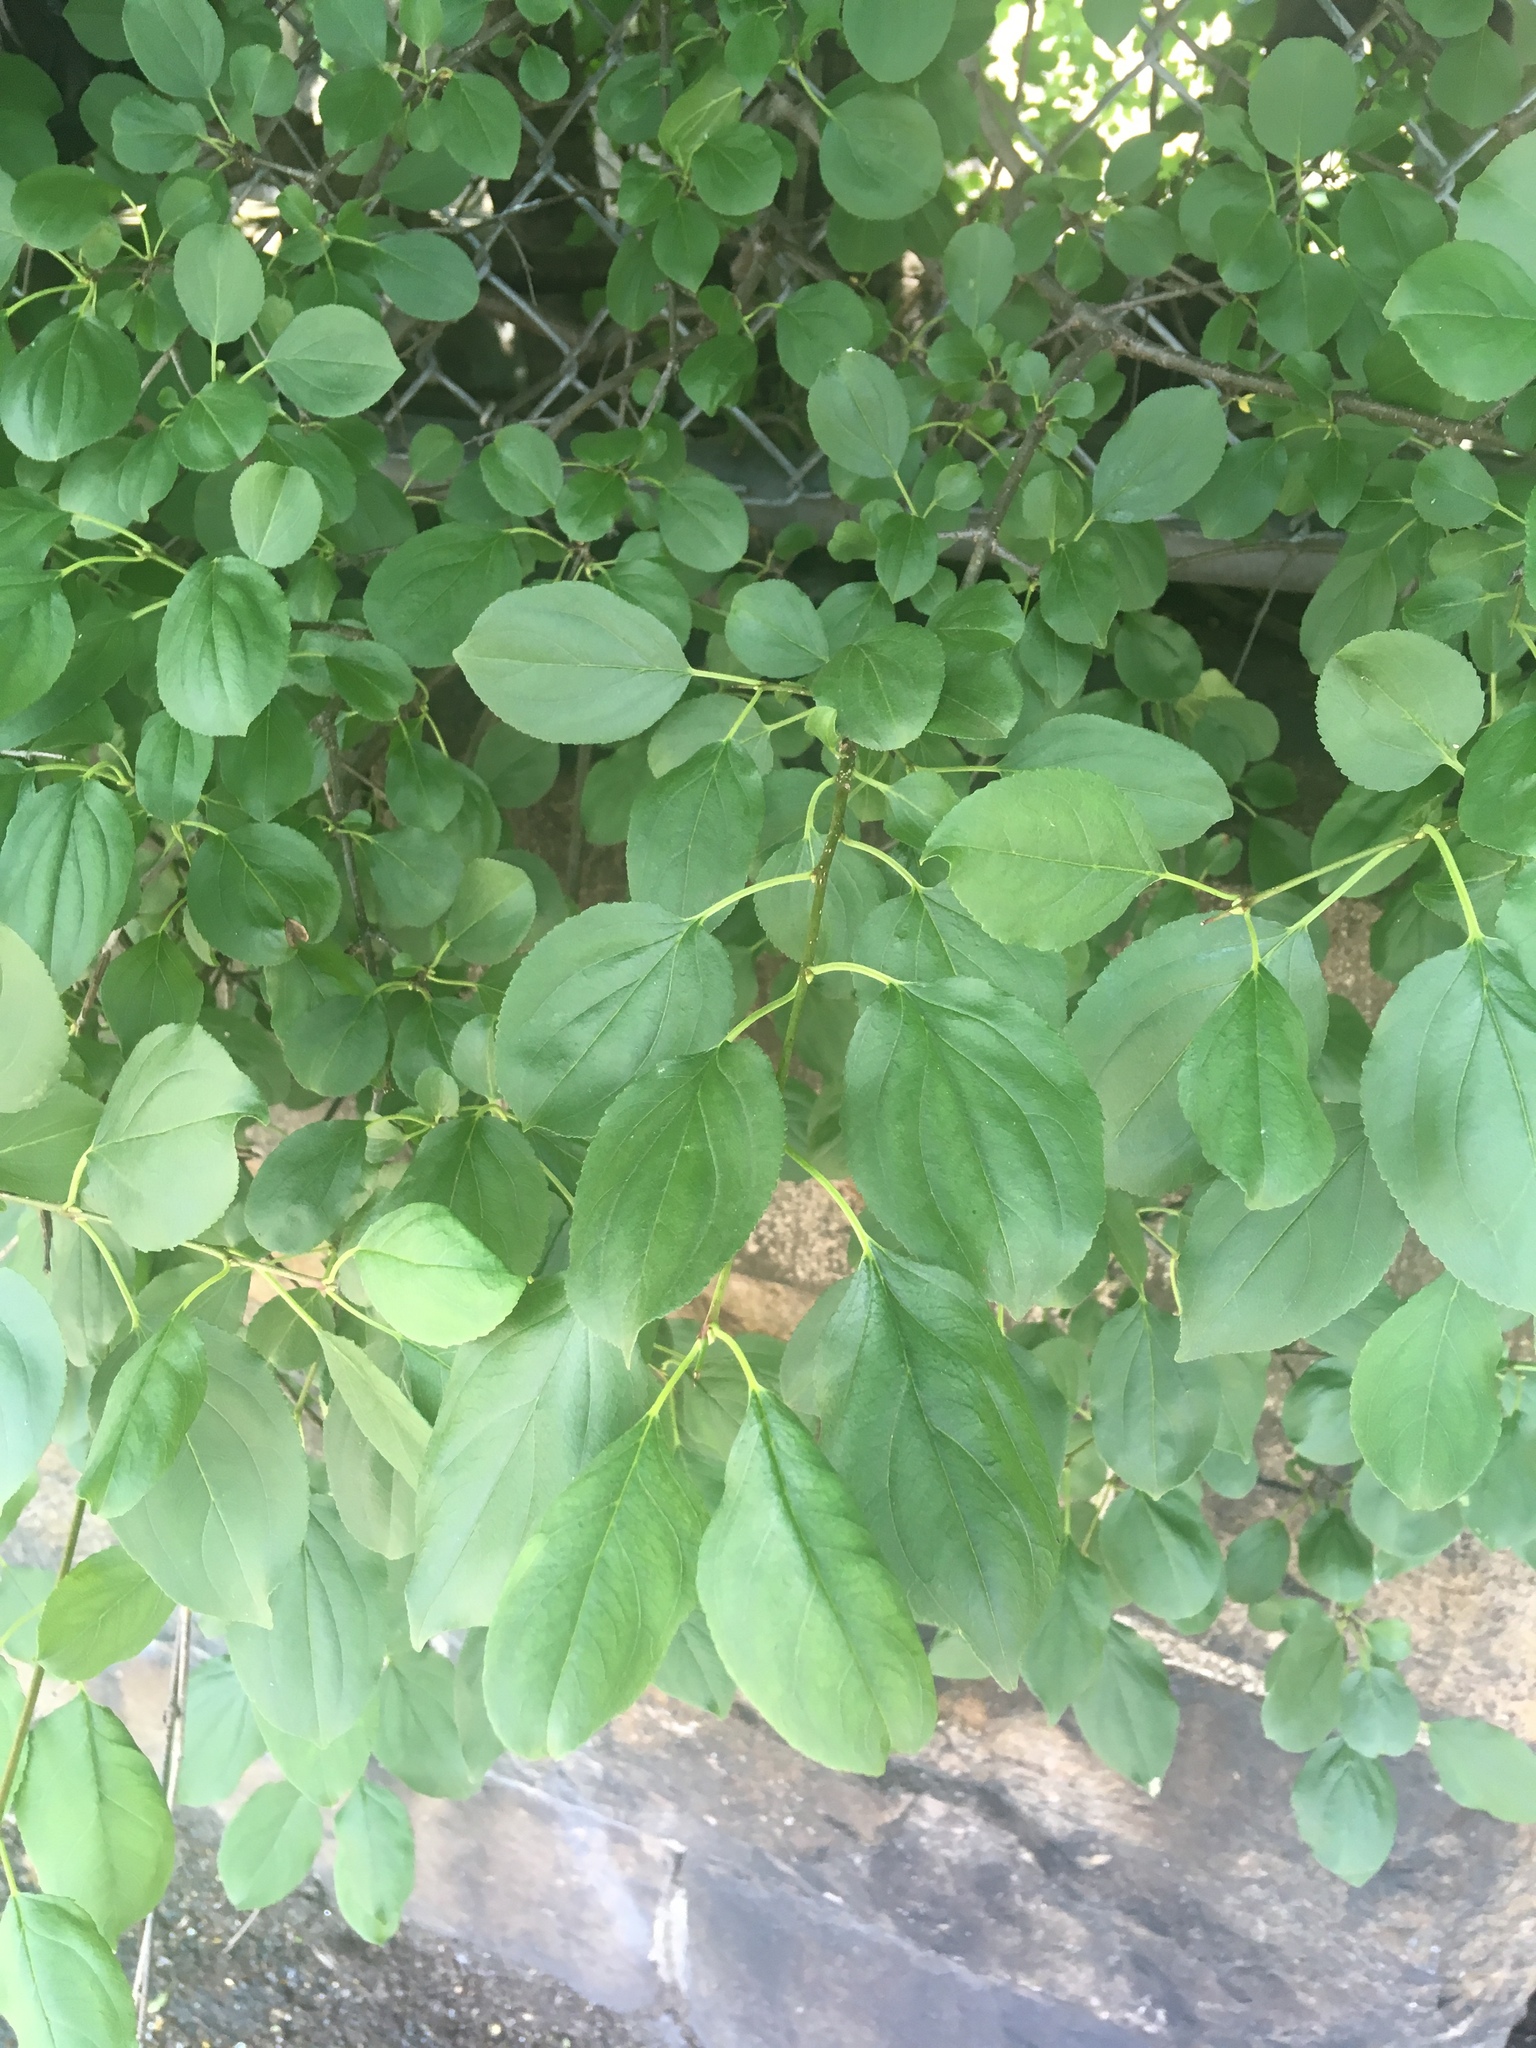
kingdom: Plantae
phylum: Tracheophyta
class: Magnoliopsida
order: Rosales
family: Rhamnaceae
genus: Rhamnus
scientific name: Rhamnus cathartica
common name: Common buckthorn
